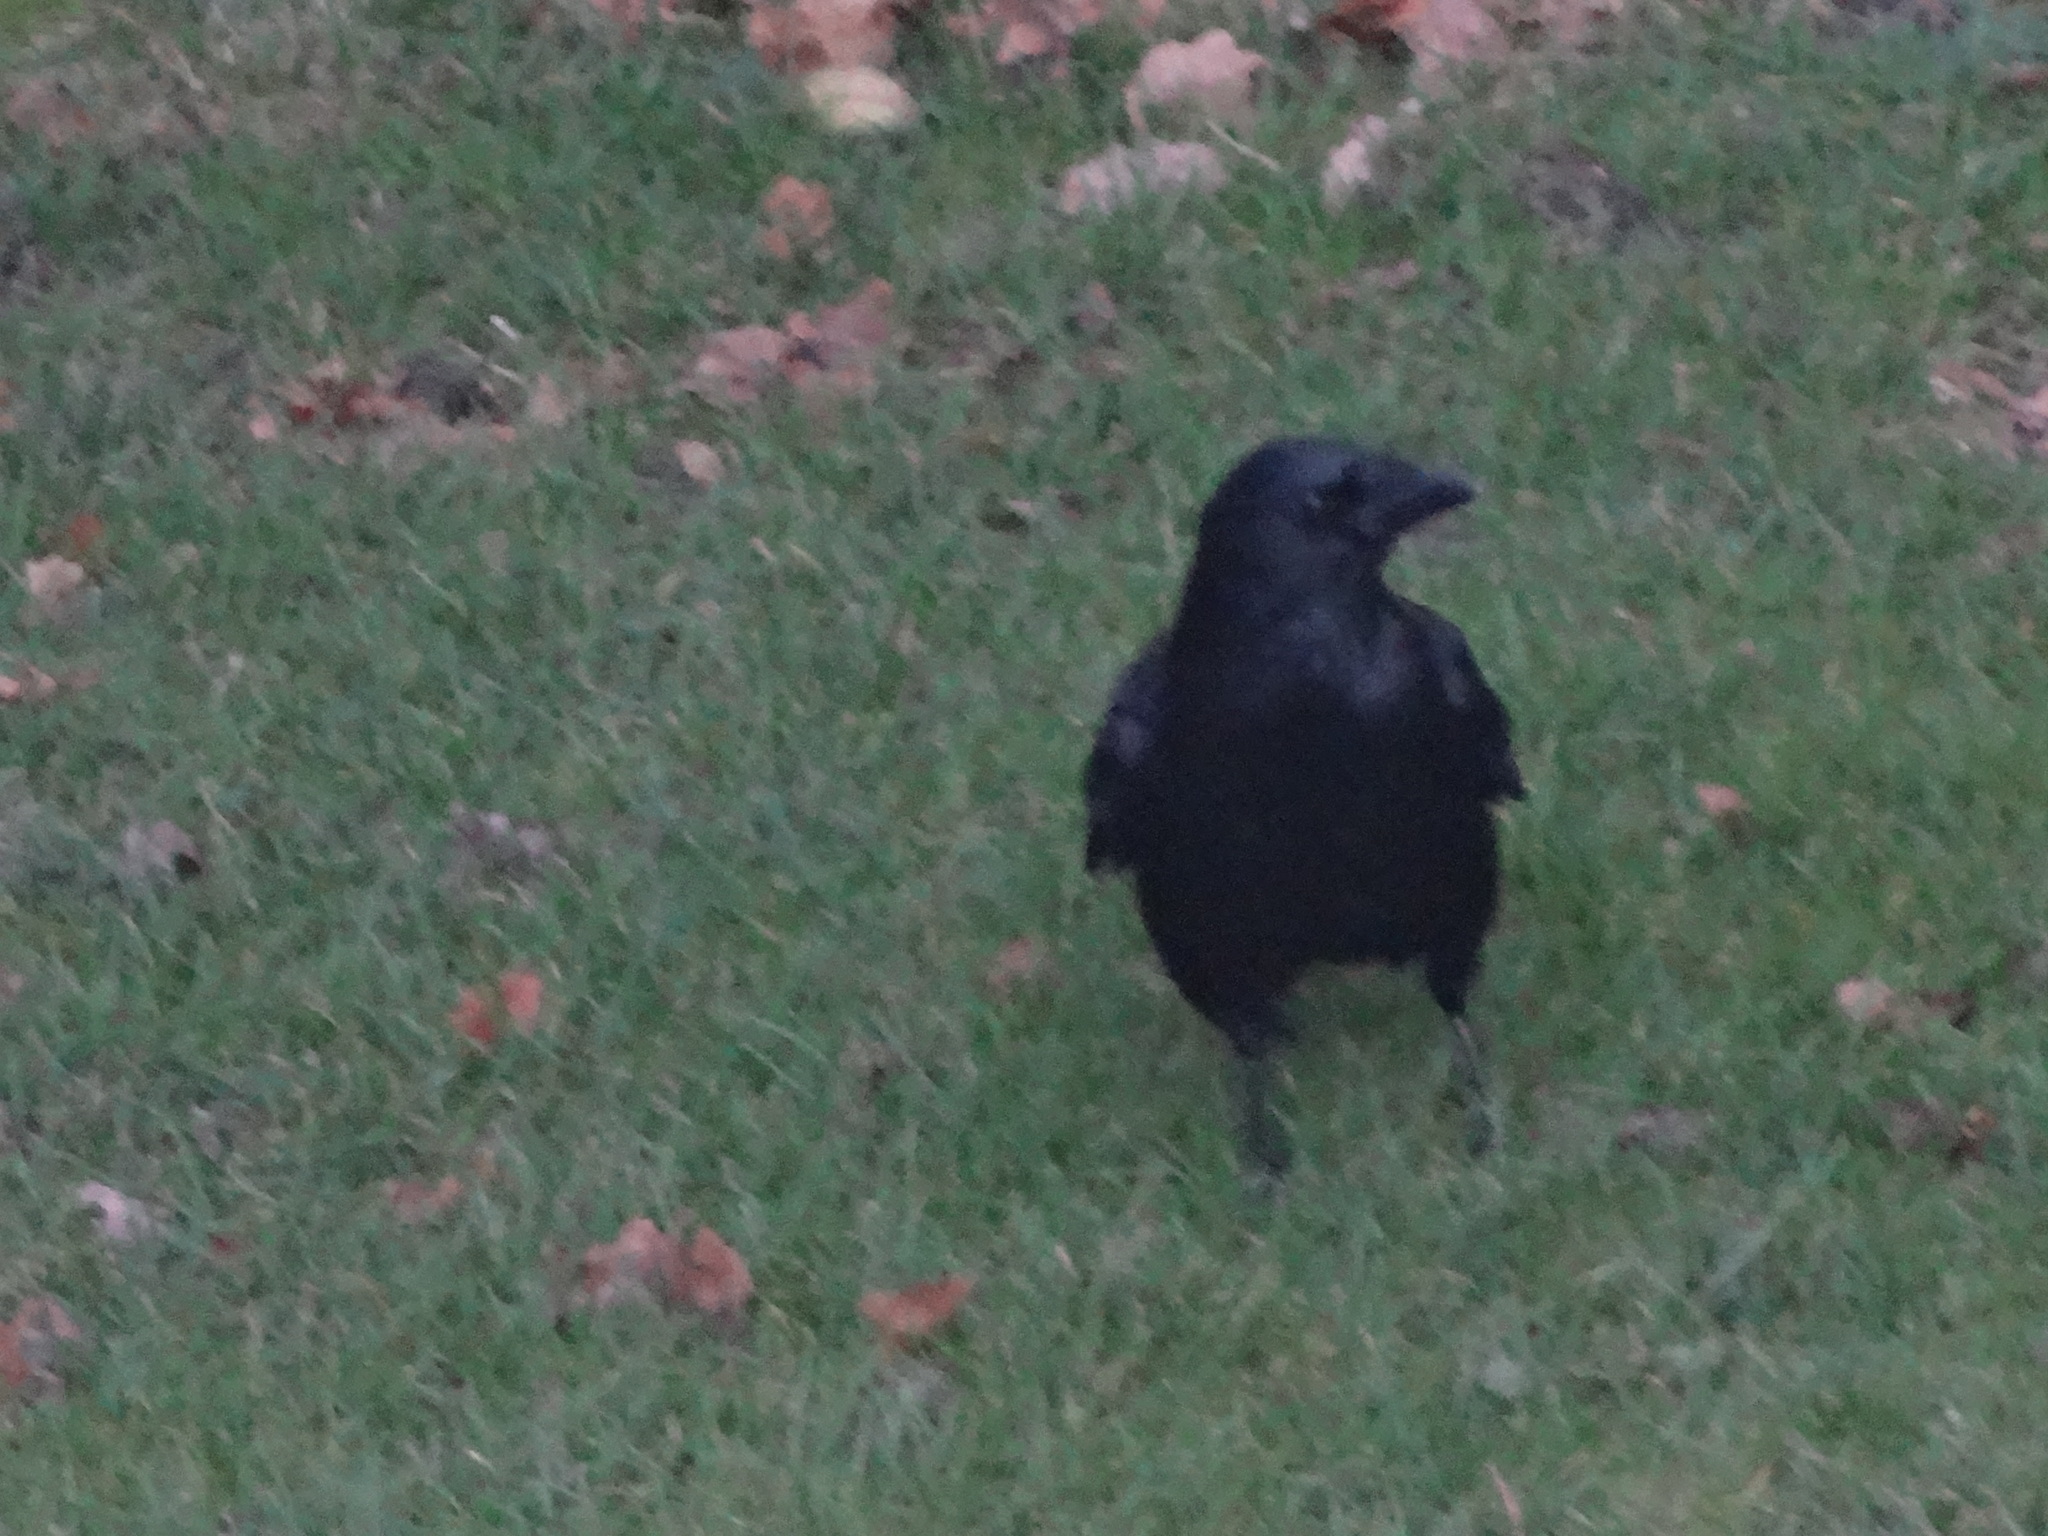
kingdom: Animalia
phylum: Chordata
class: Aves
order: Passeriformes
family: Corvidae
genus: Corvus
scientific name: Corvus corone
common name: Carrion crow
